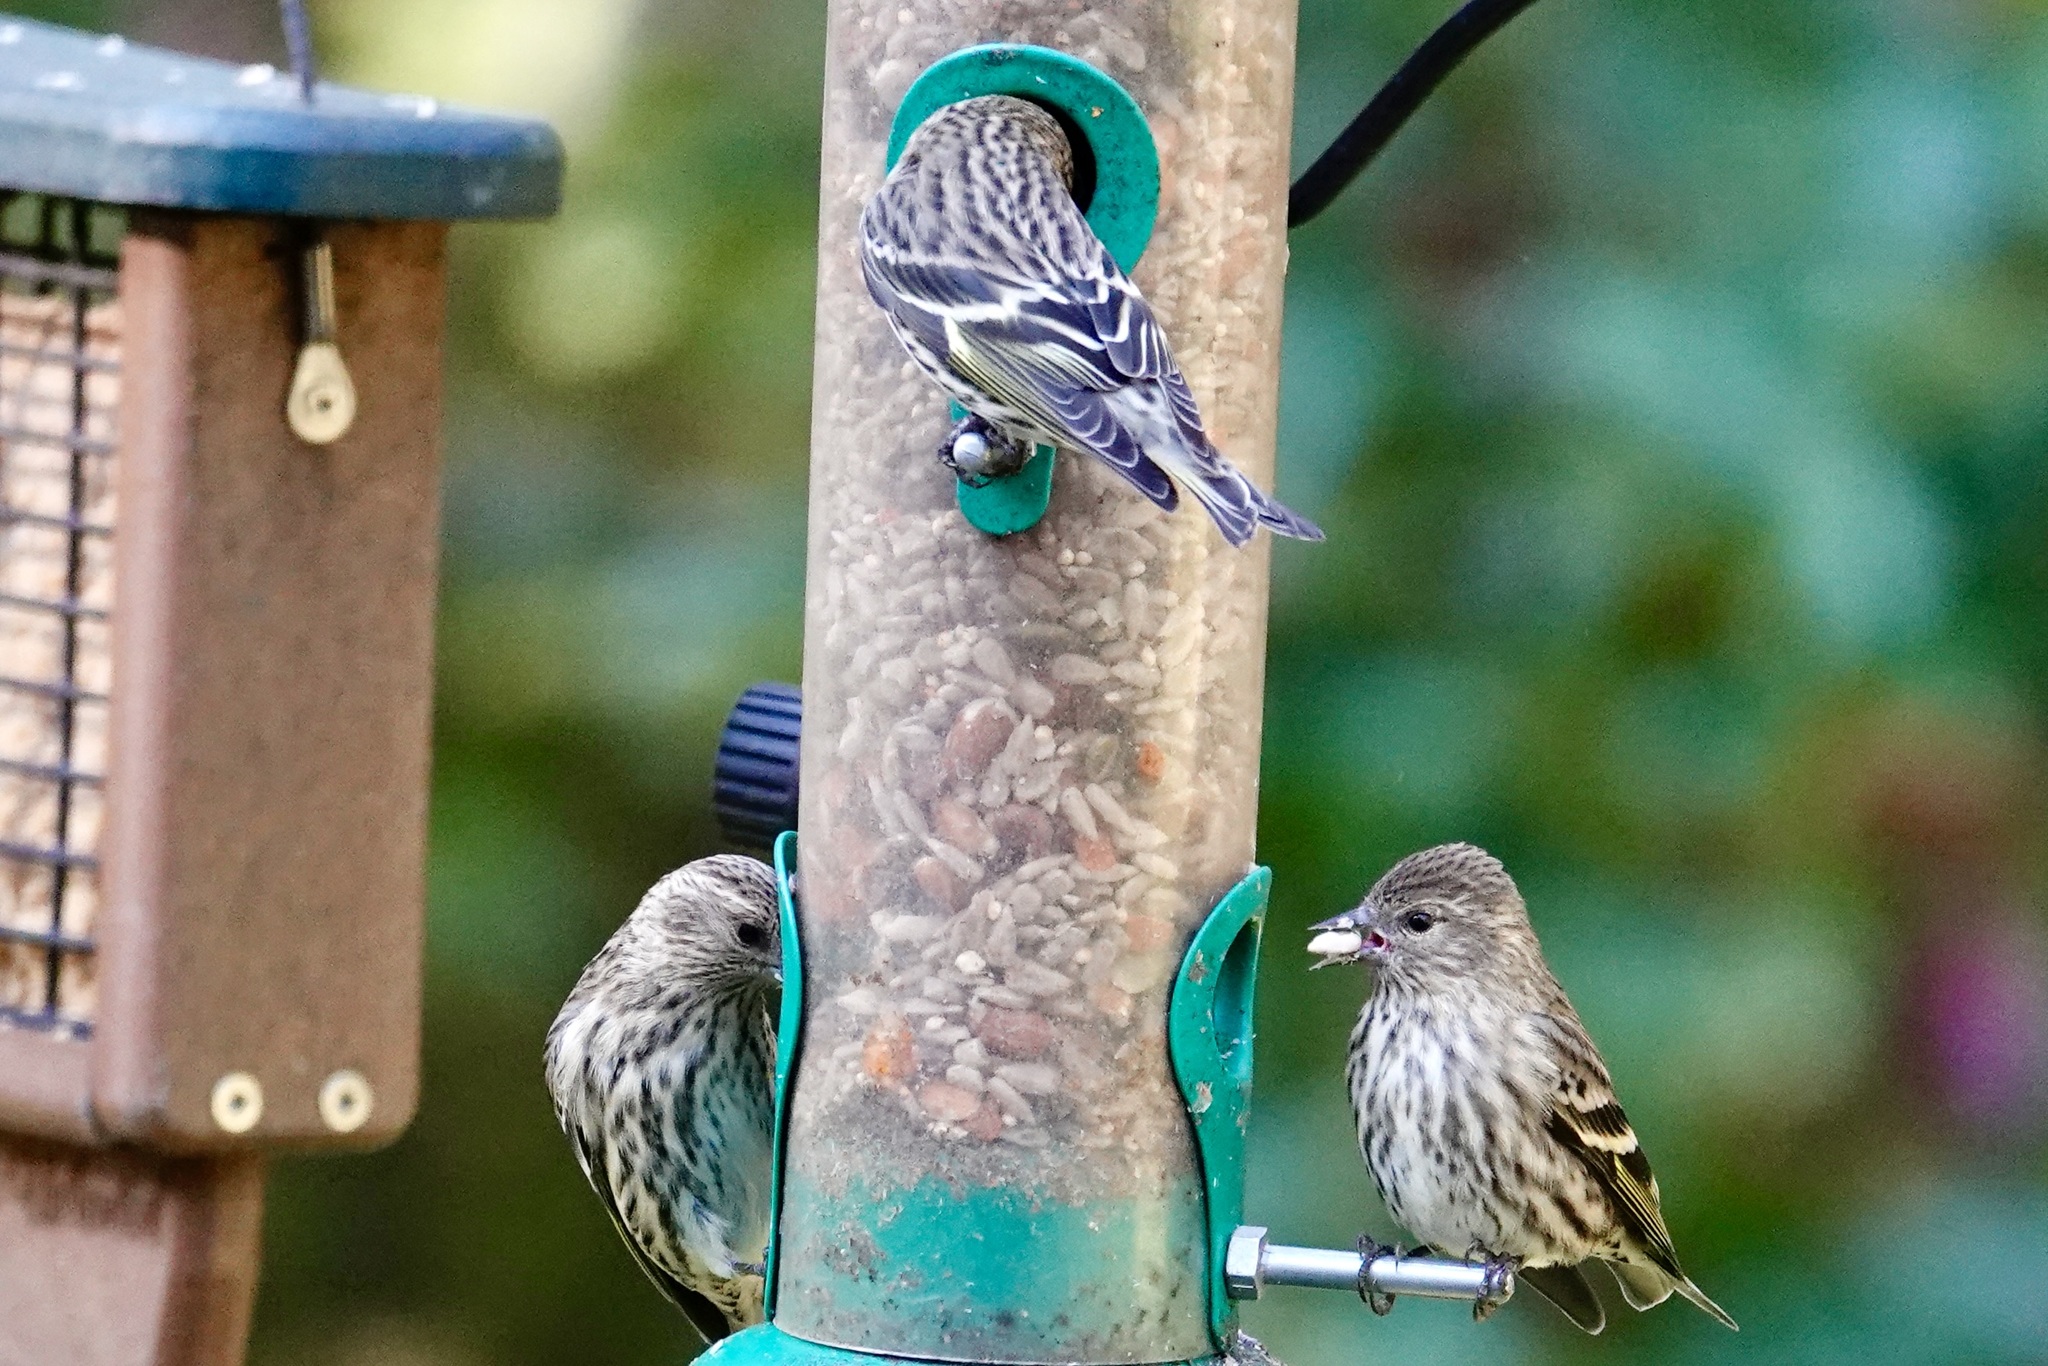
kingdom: Animalia
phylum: Chordata
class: Aves
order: Passeriformes
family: Fringillidae
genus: Spinus
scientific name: Spinus pinus
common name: Pine siskin
